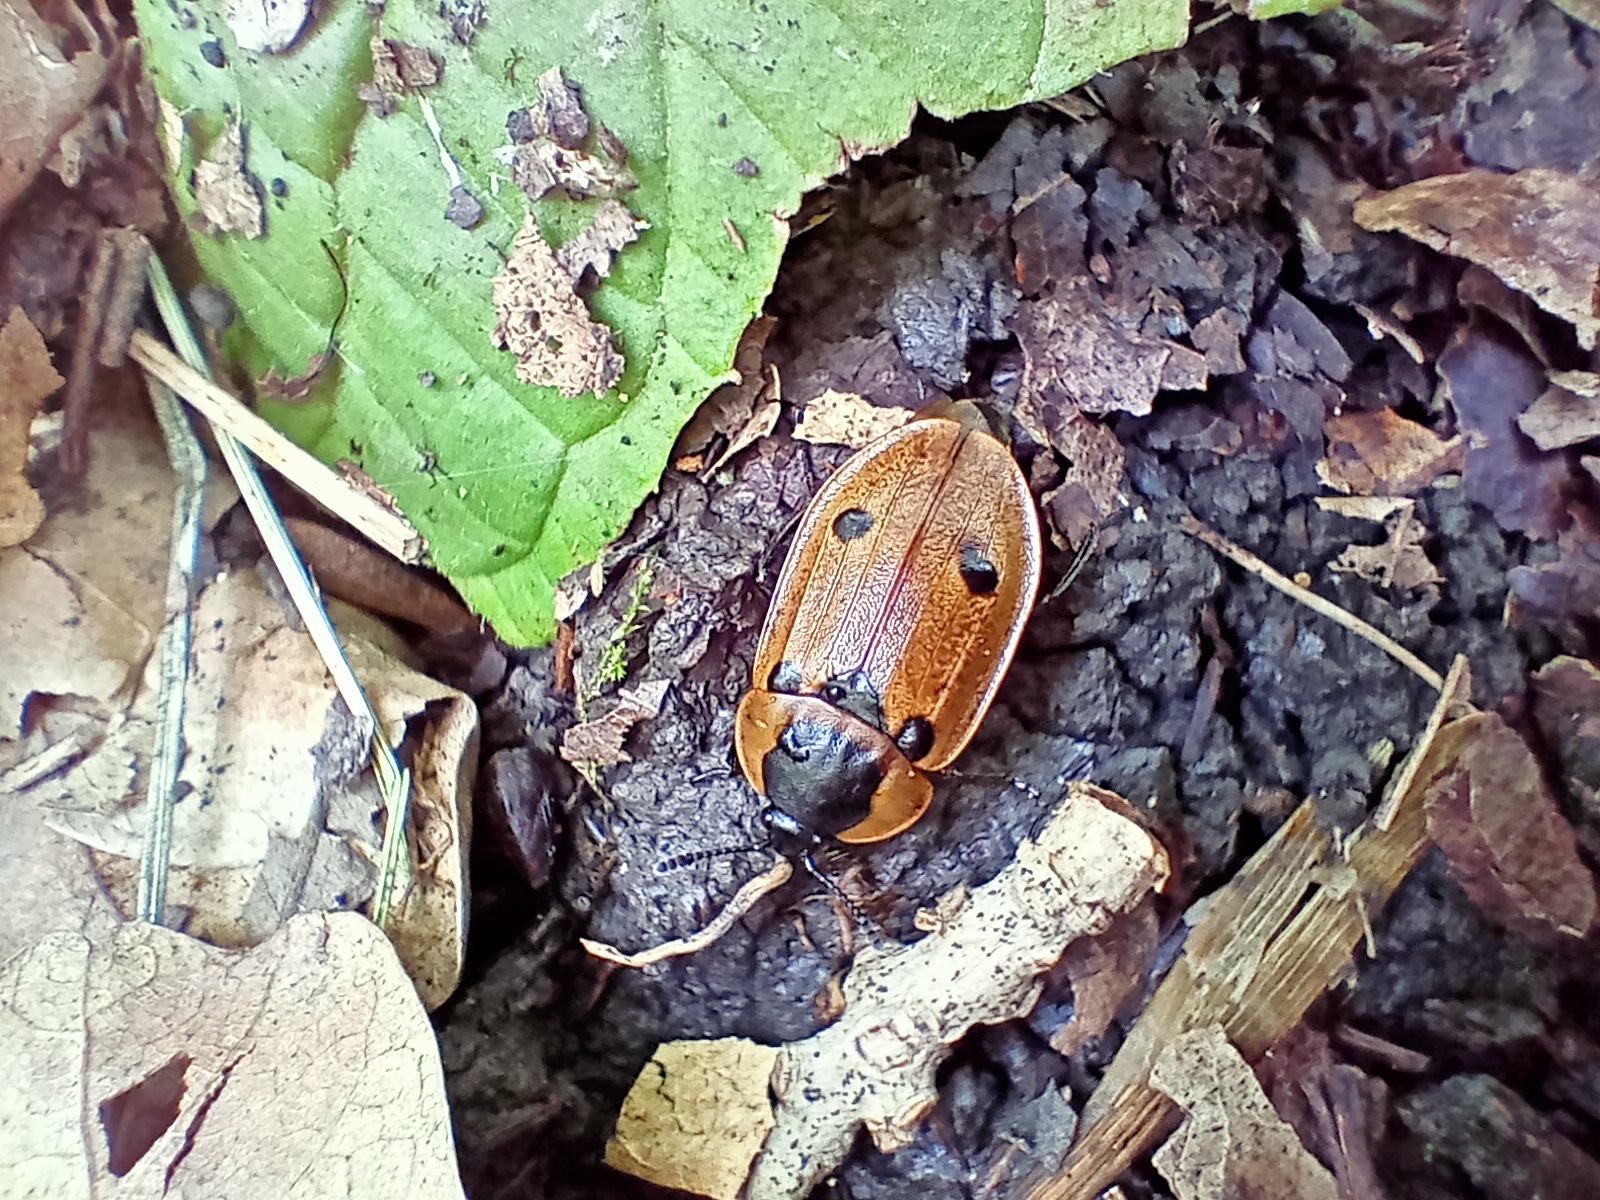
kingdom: Animalia
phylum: Arthropoda
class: Insecta
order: Coleoptera
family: Staphylinidae
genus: Dendroxena
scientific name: Dendroxena quadrimaculata
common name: Carrion beetle
